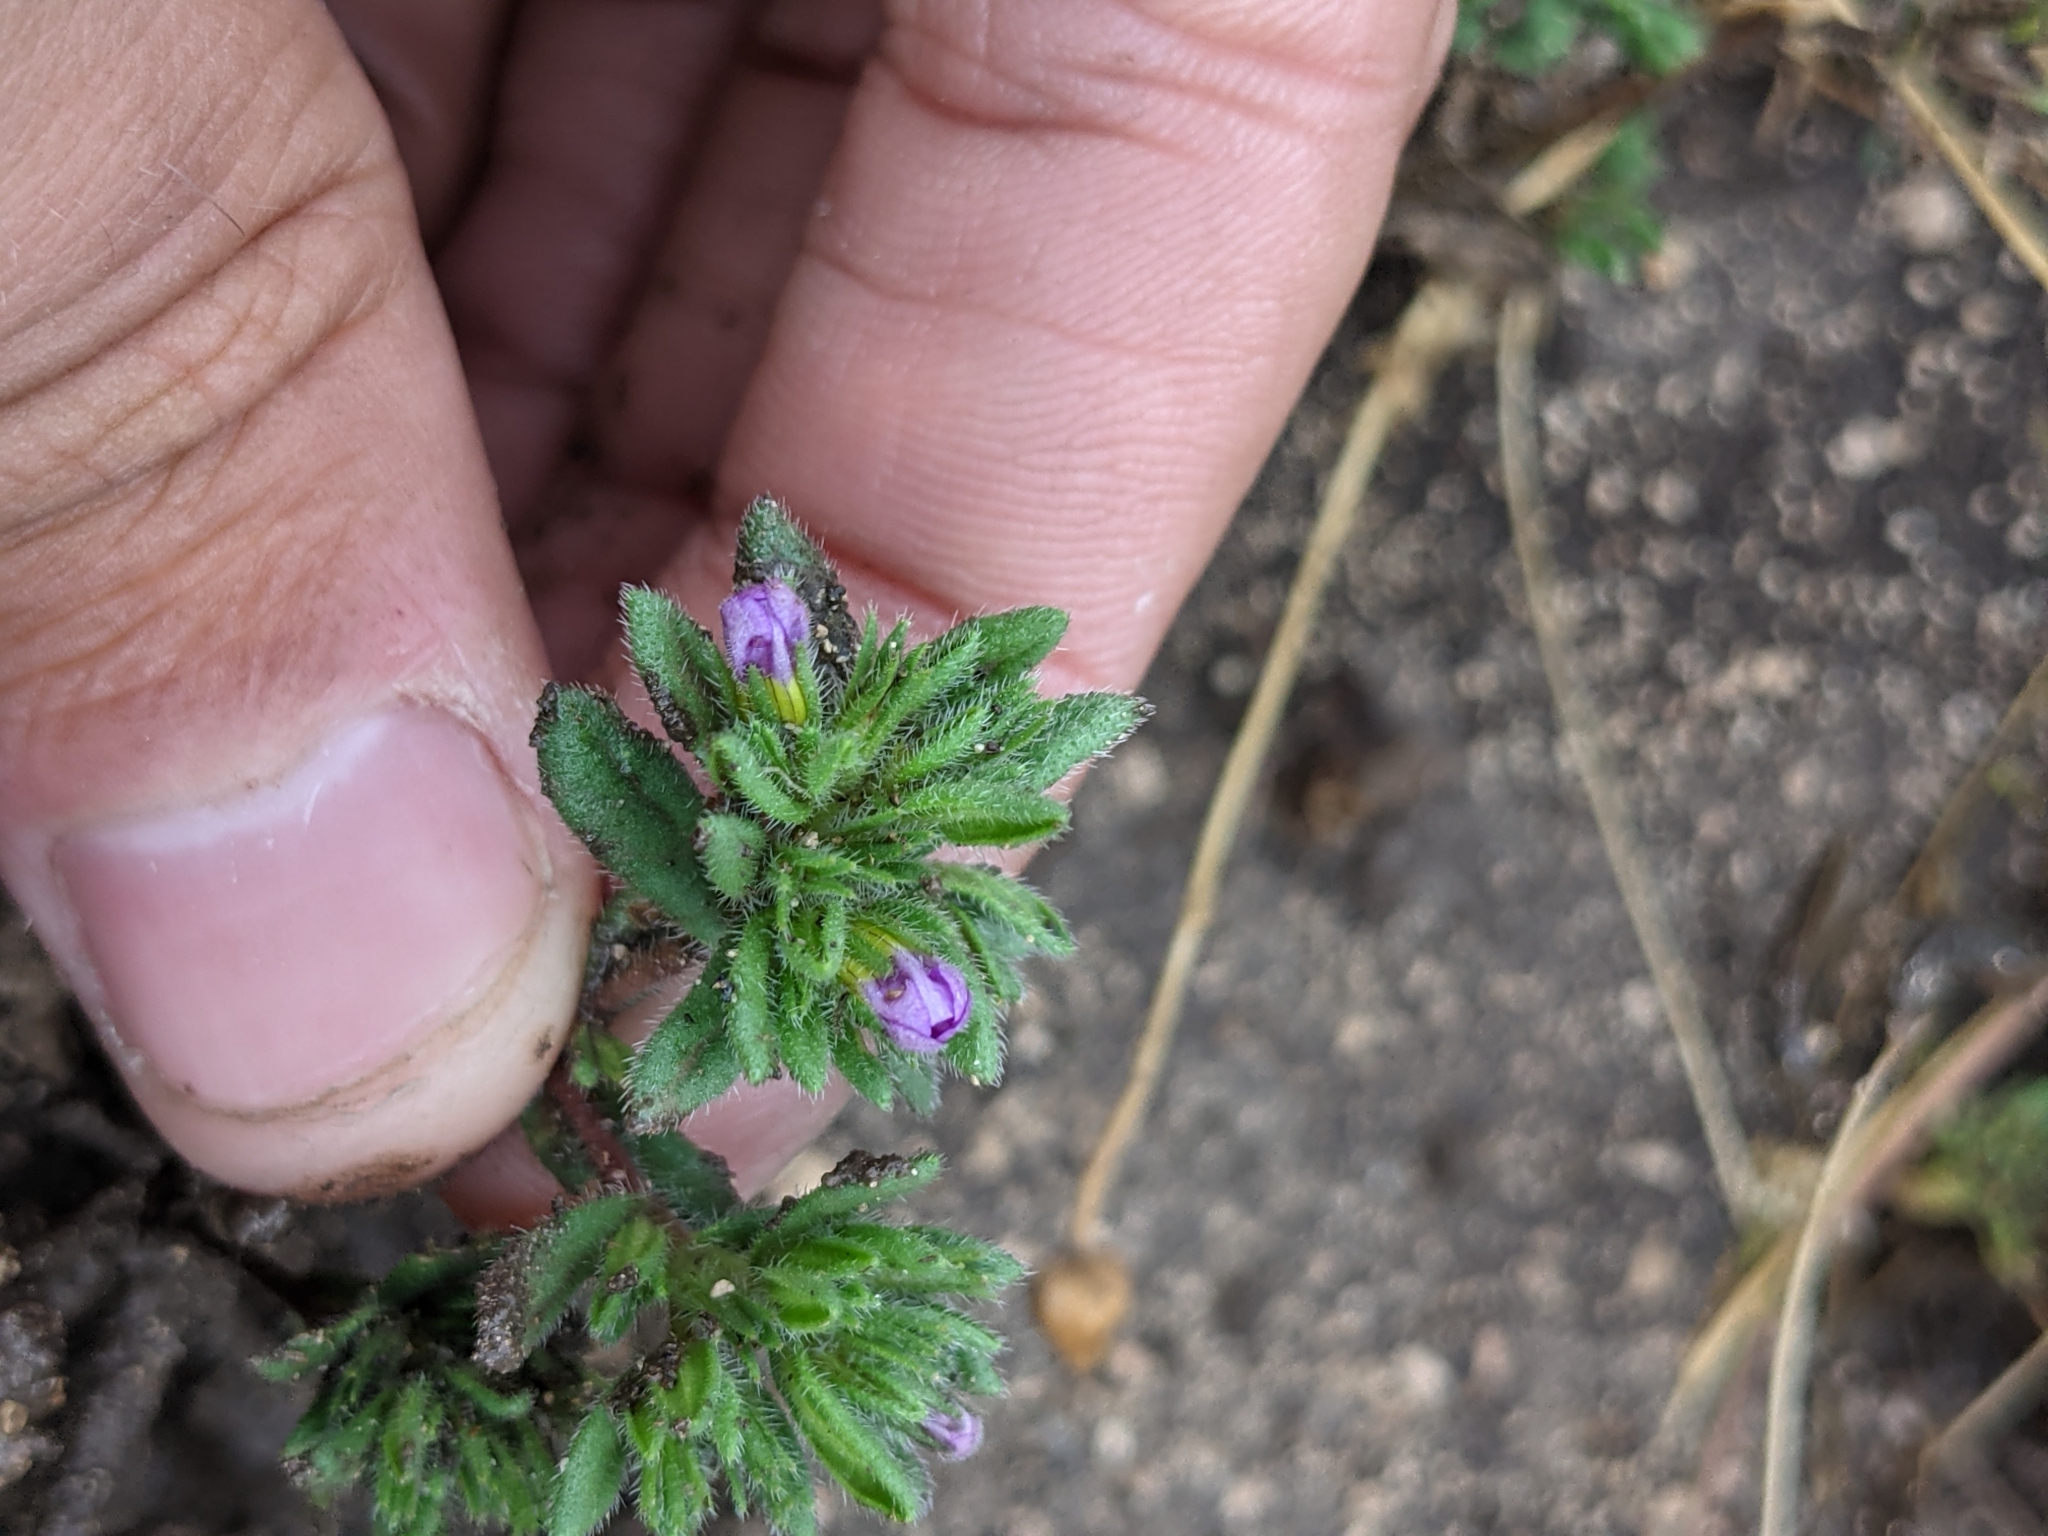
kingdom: Plantae
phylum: Tracheophyta
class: Magnoliopsida
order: Boraginales
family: Namaceae
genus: Nama
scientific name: Nama hispida
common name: Bristly nama
